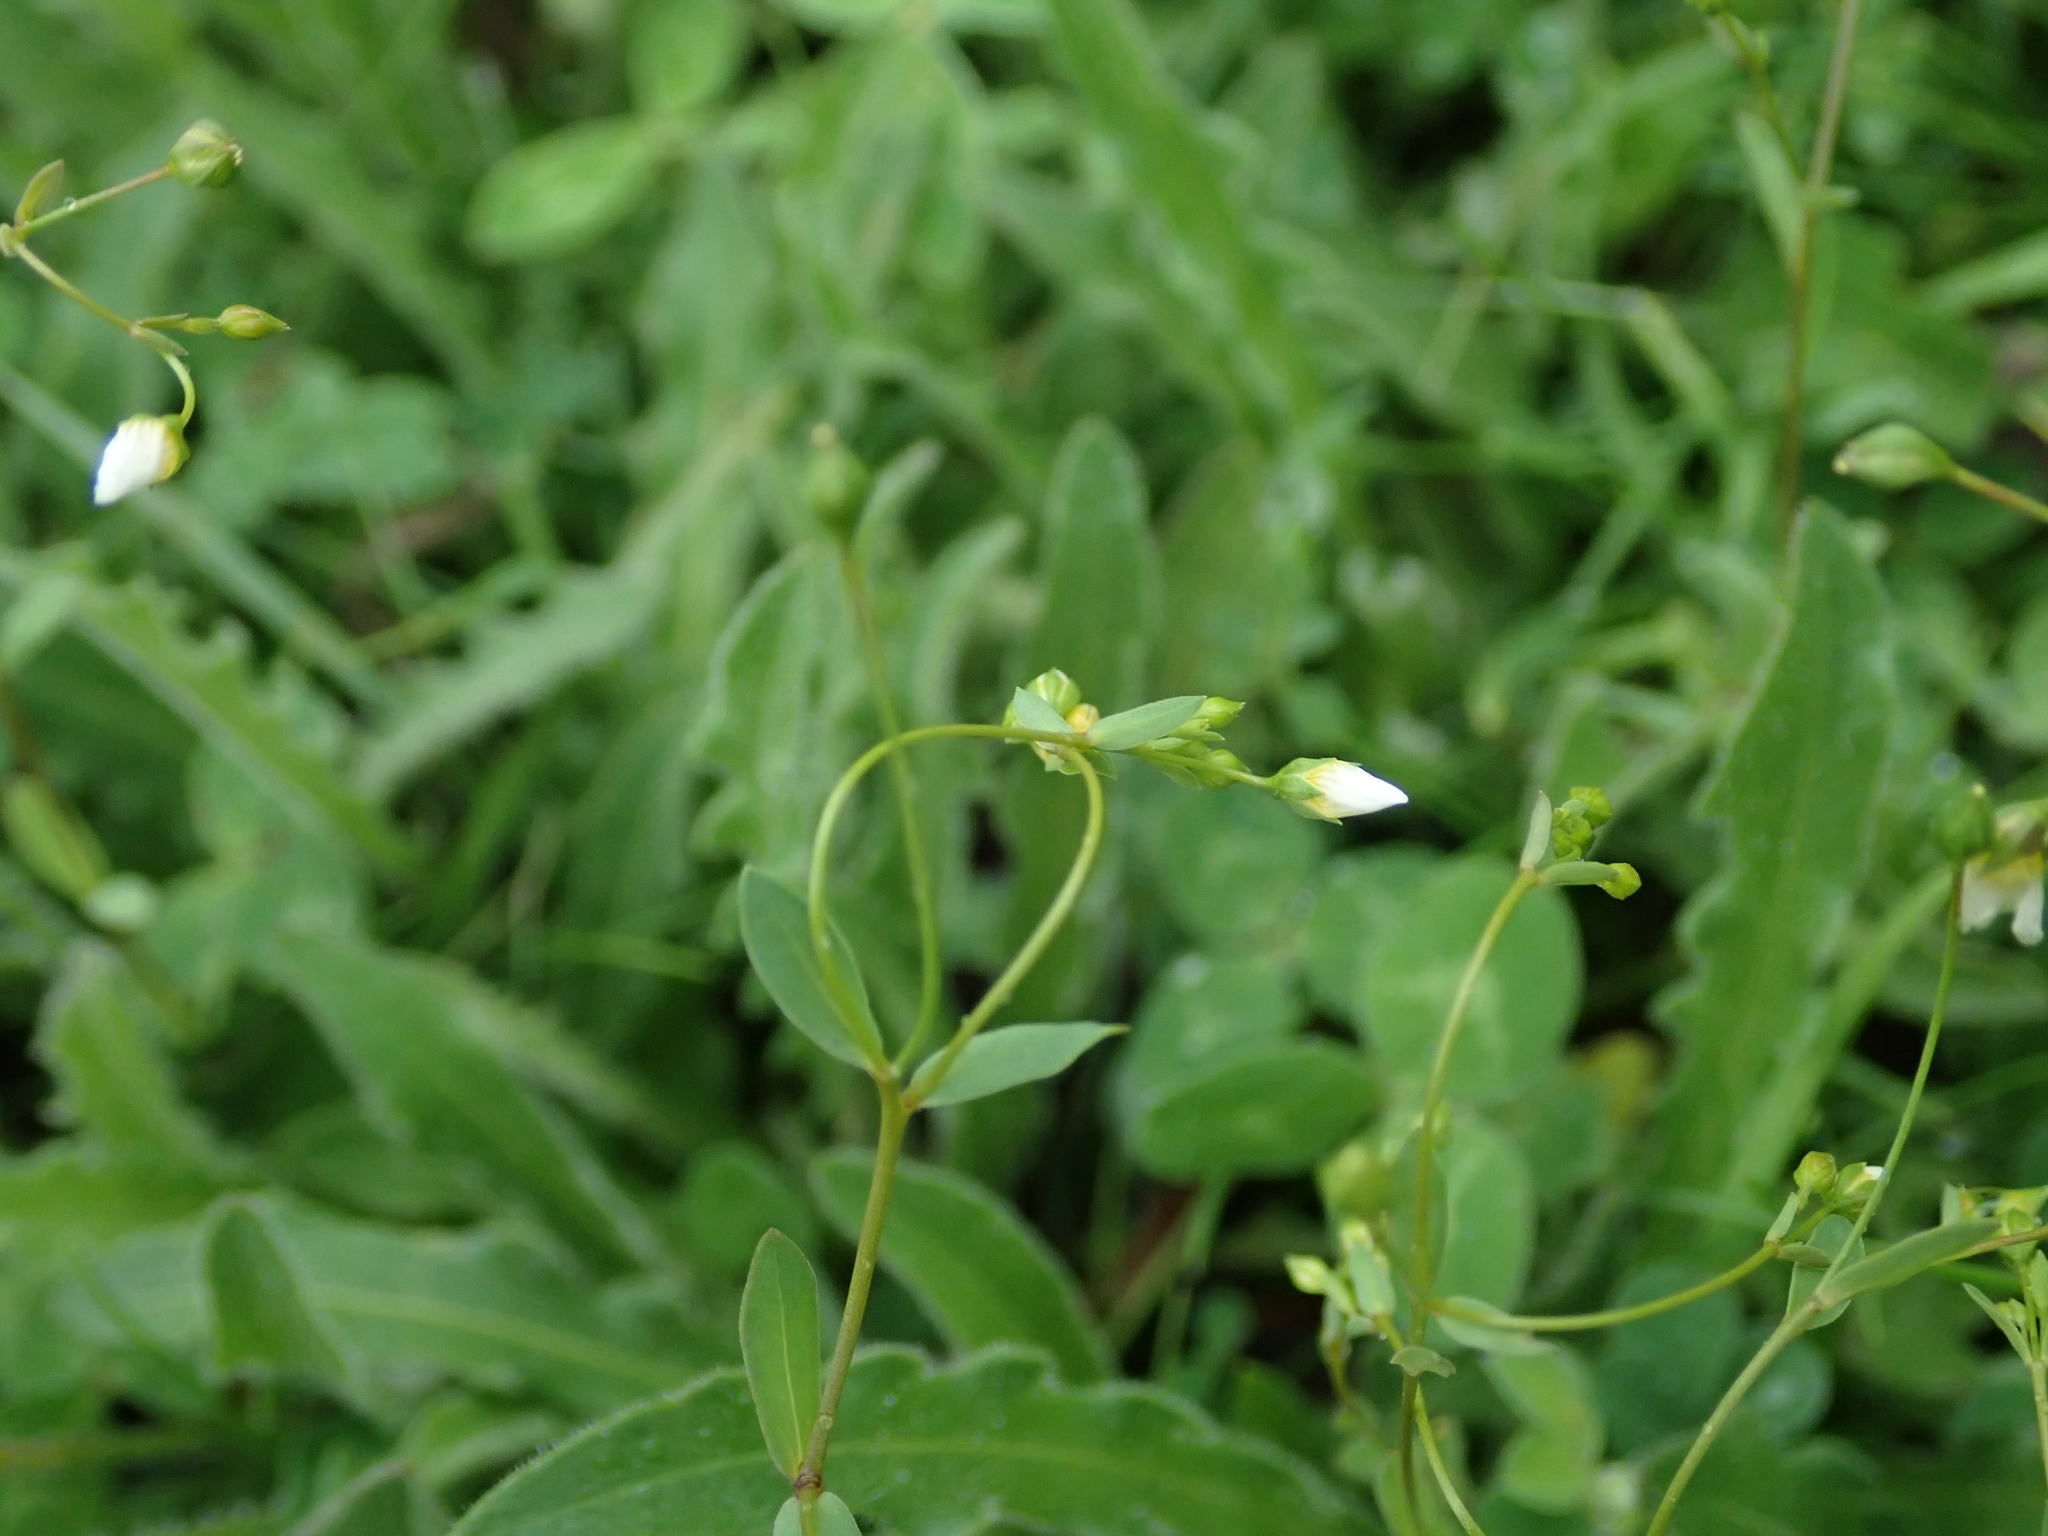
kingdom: Plantae
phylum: Tracheophyta
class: Magnoliopsida
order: Malpighiales
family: Linaceae
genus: Linum
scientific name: Linum catharticum
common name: Fairy flax
